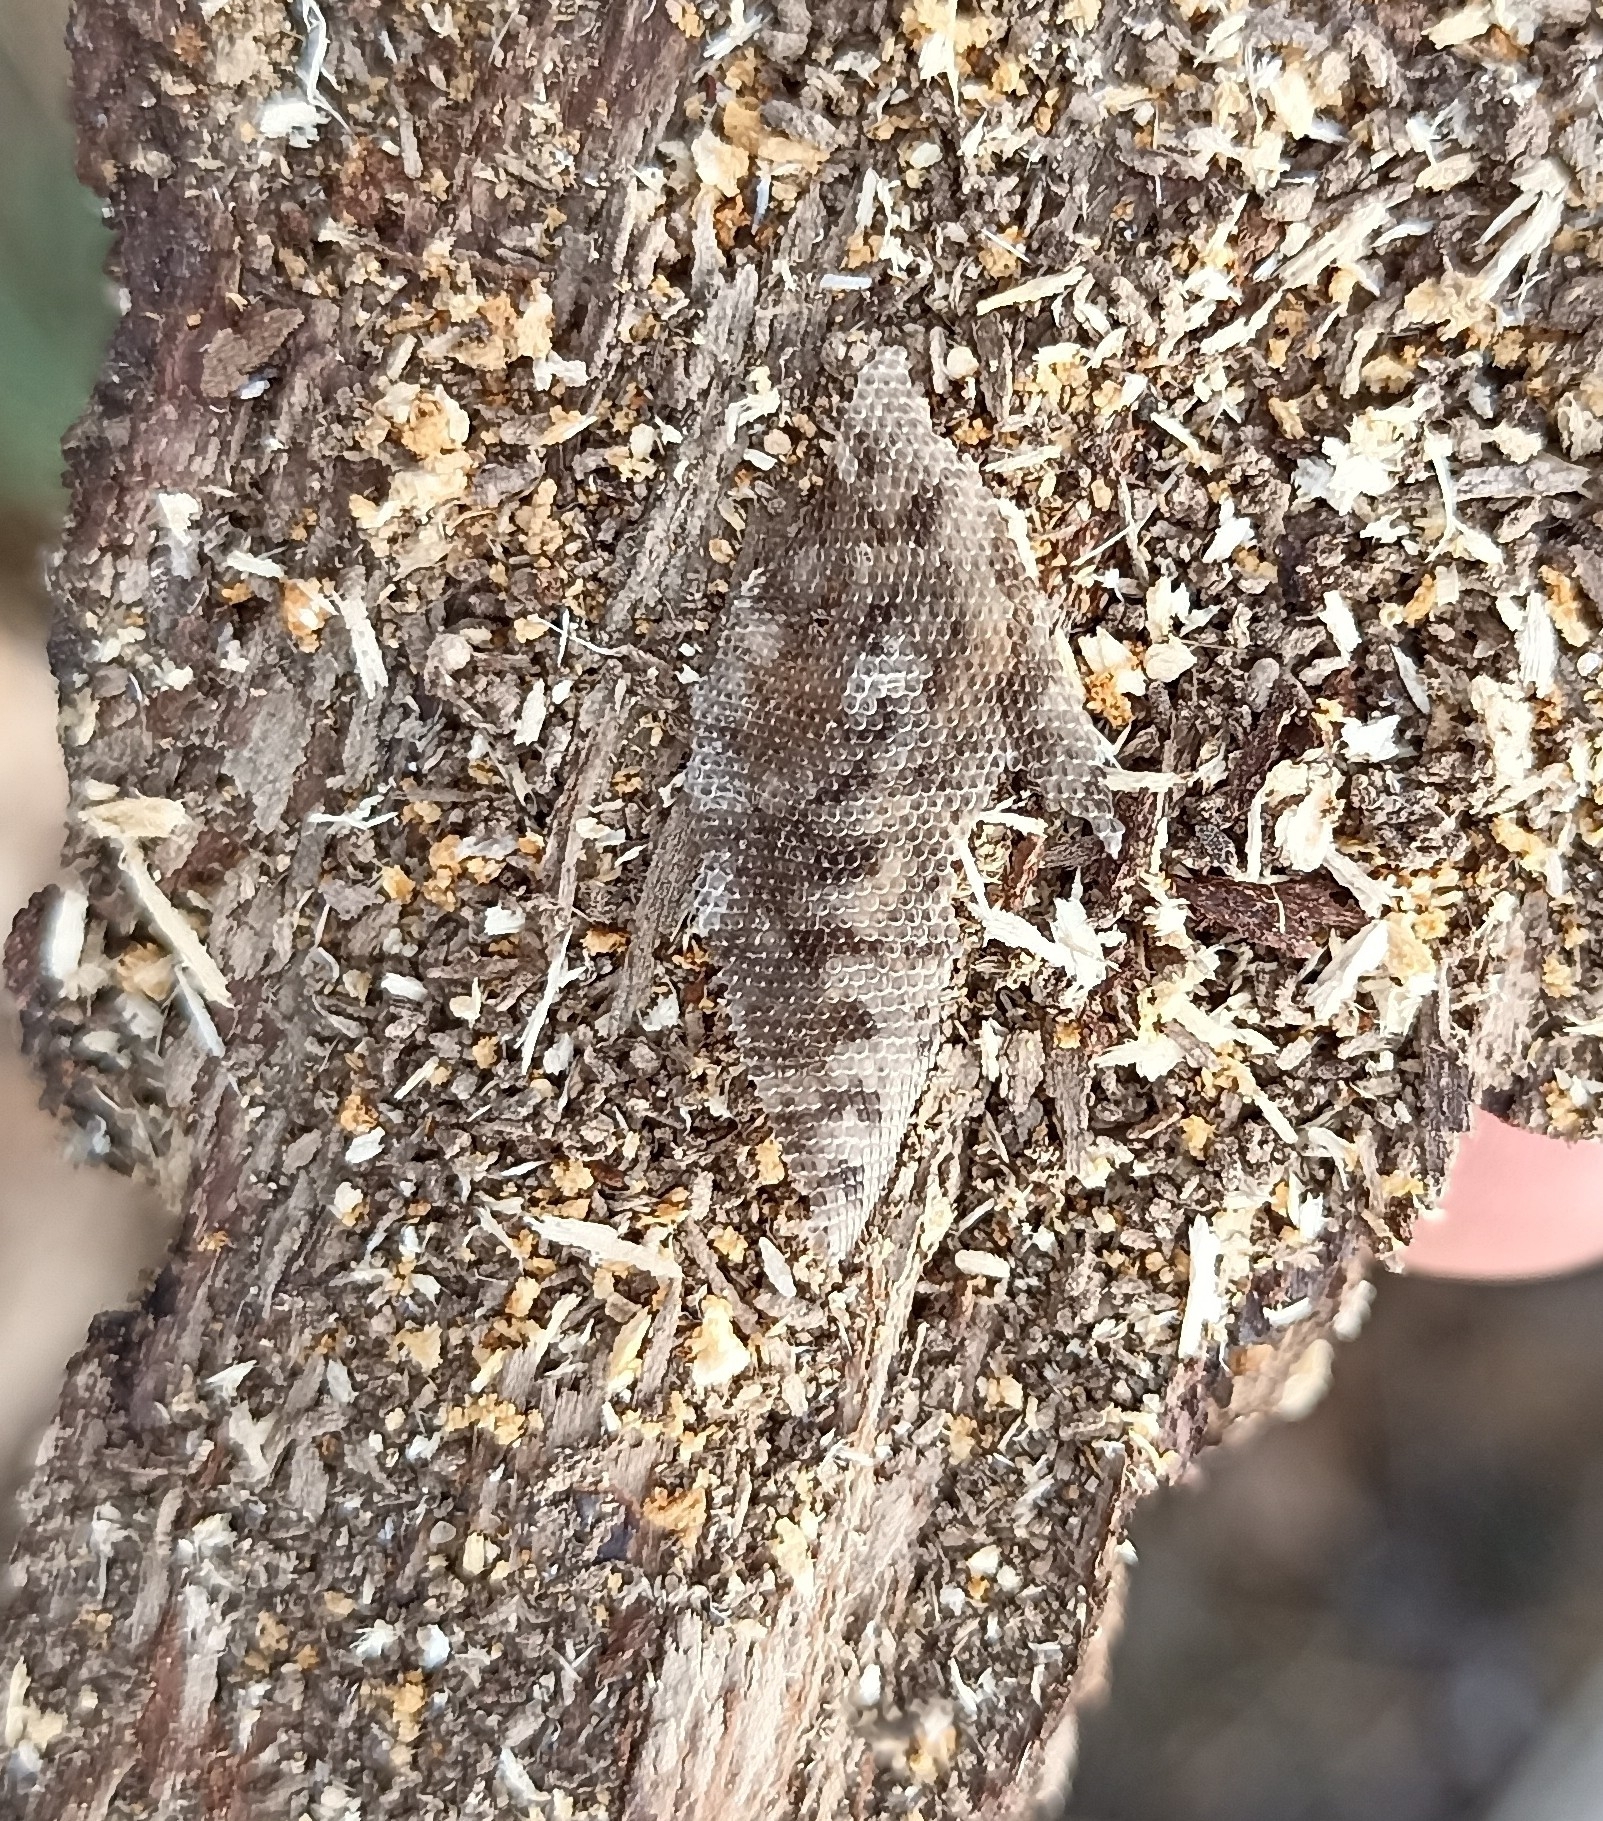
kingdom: Animalia
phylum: Chordata
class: Squamata
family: Lacertidae
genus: Podarcis
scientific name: Podarcis muralis
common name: Common wall lizard
